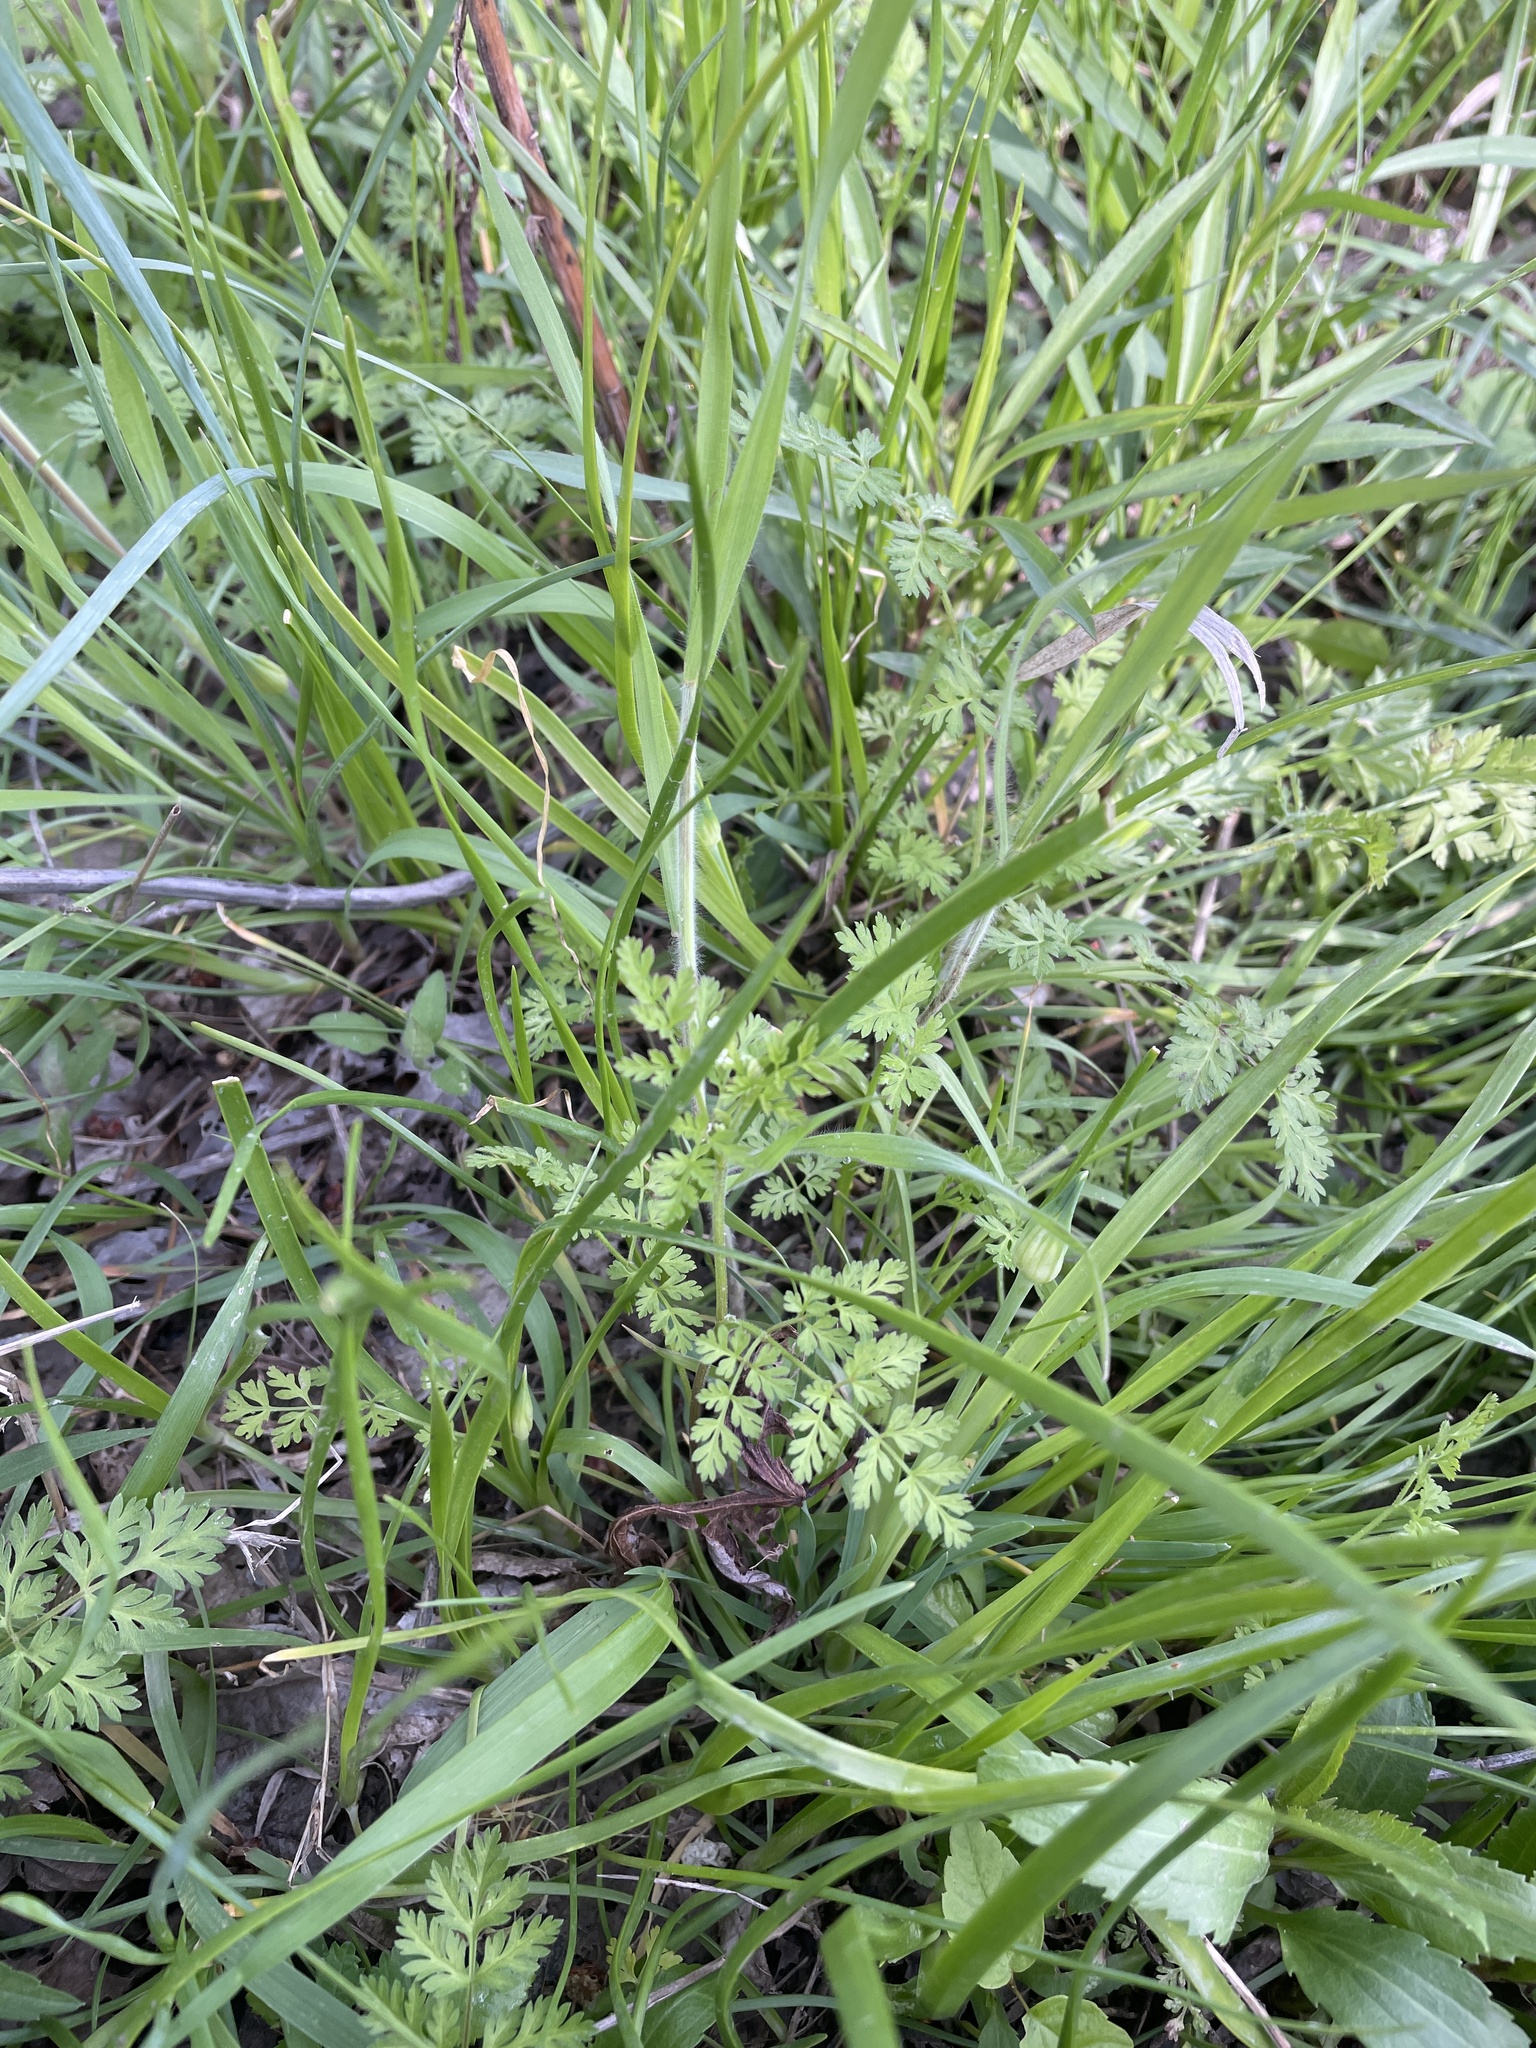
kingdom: Plantae
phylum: Tracheophyta
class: Magnoliopsida
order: Apiales
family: Apiaceae
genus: Chaerophyllum
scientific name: Chaerophyllum tainturieri
